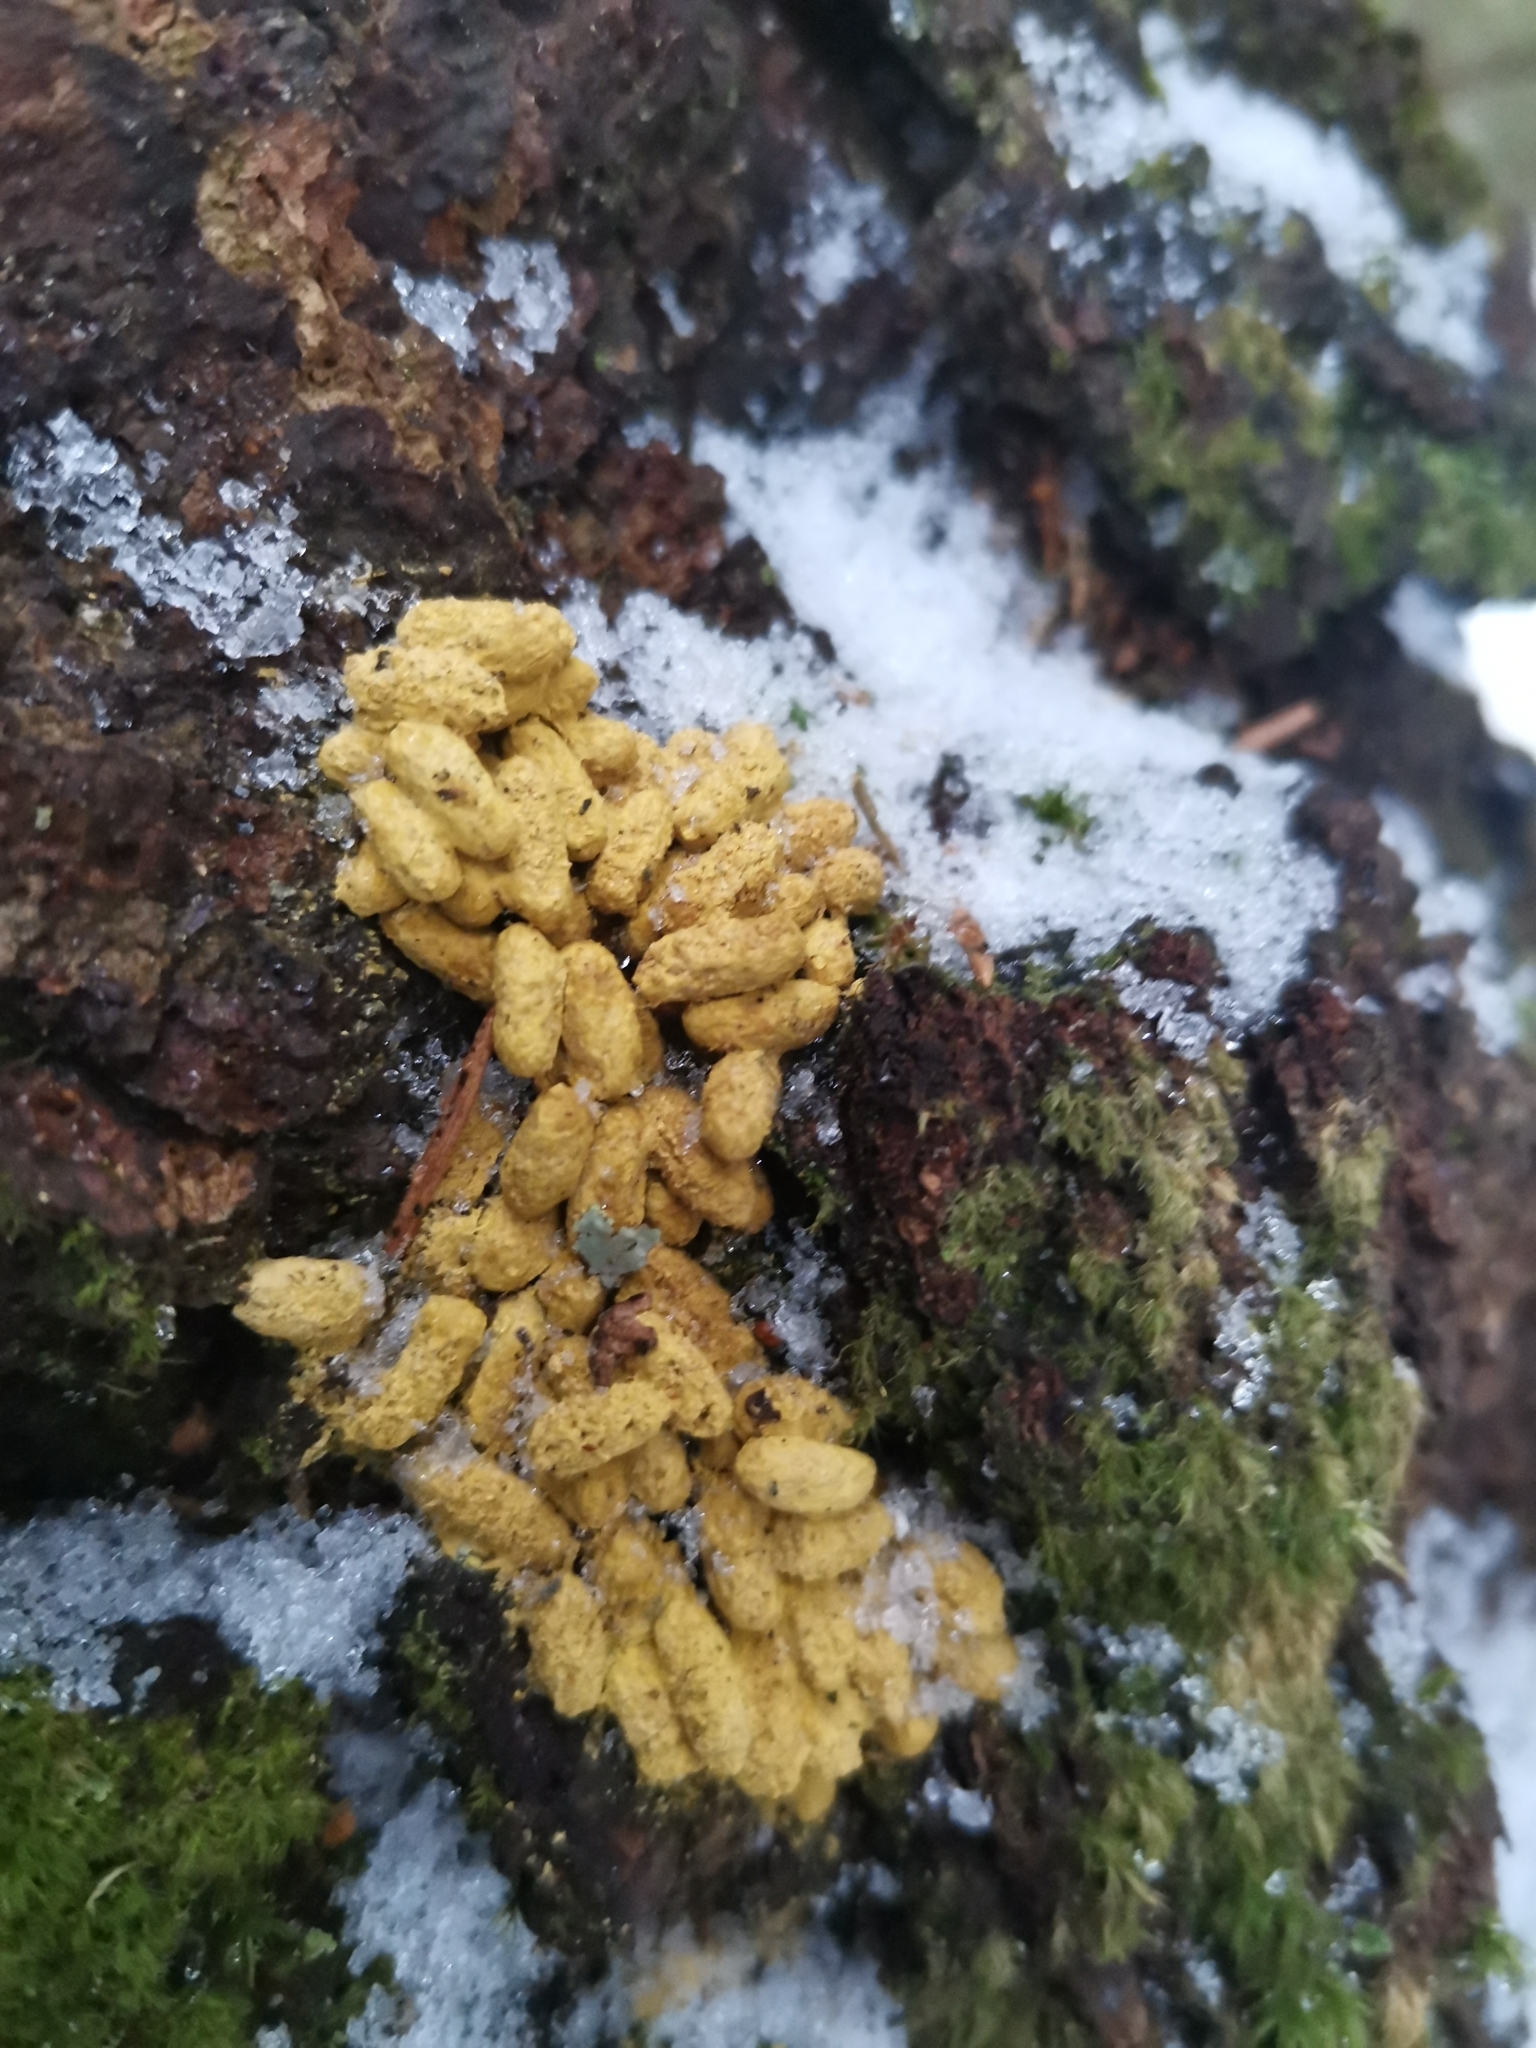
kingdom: Animalia
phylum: Chordata
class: Mammalia
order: Rodentia
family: Sciuridae
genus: Pteromys
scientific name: Pteromys volans
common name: Siberian flying squirrel
